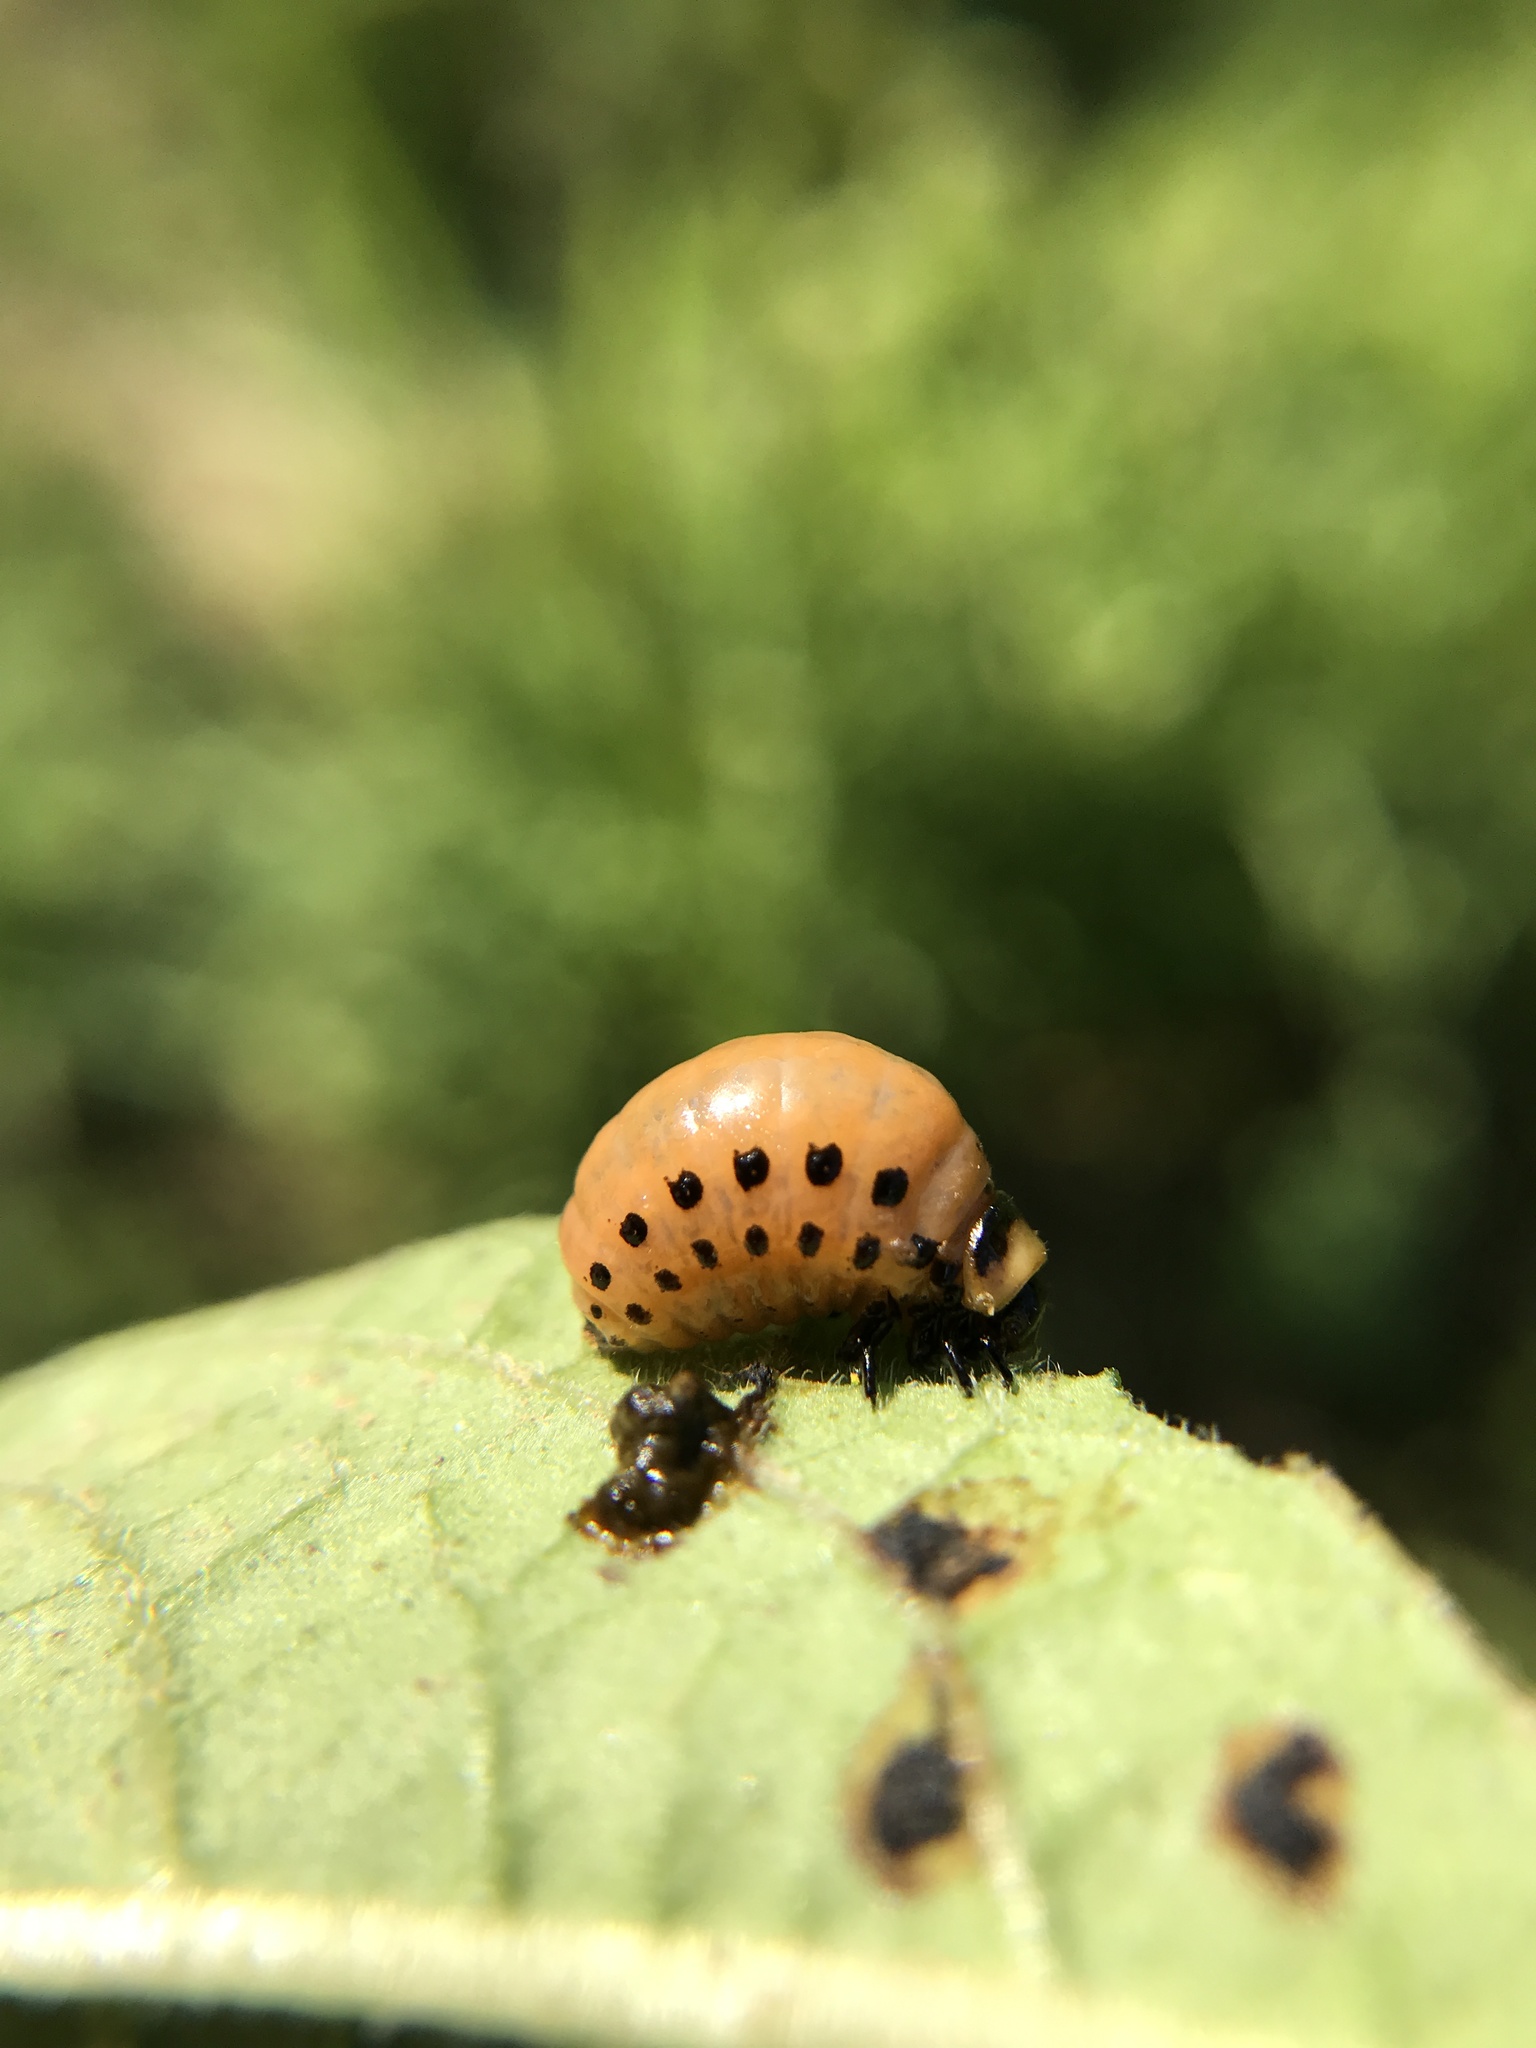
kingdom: Animalia
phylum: Arthropoda
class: Insecta
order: Coleoptera
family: Chrysomelidae
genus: Leptinotarsa
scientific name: Leptinotarsa decemlineata
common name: Colorado potato beetle
